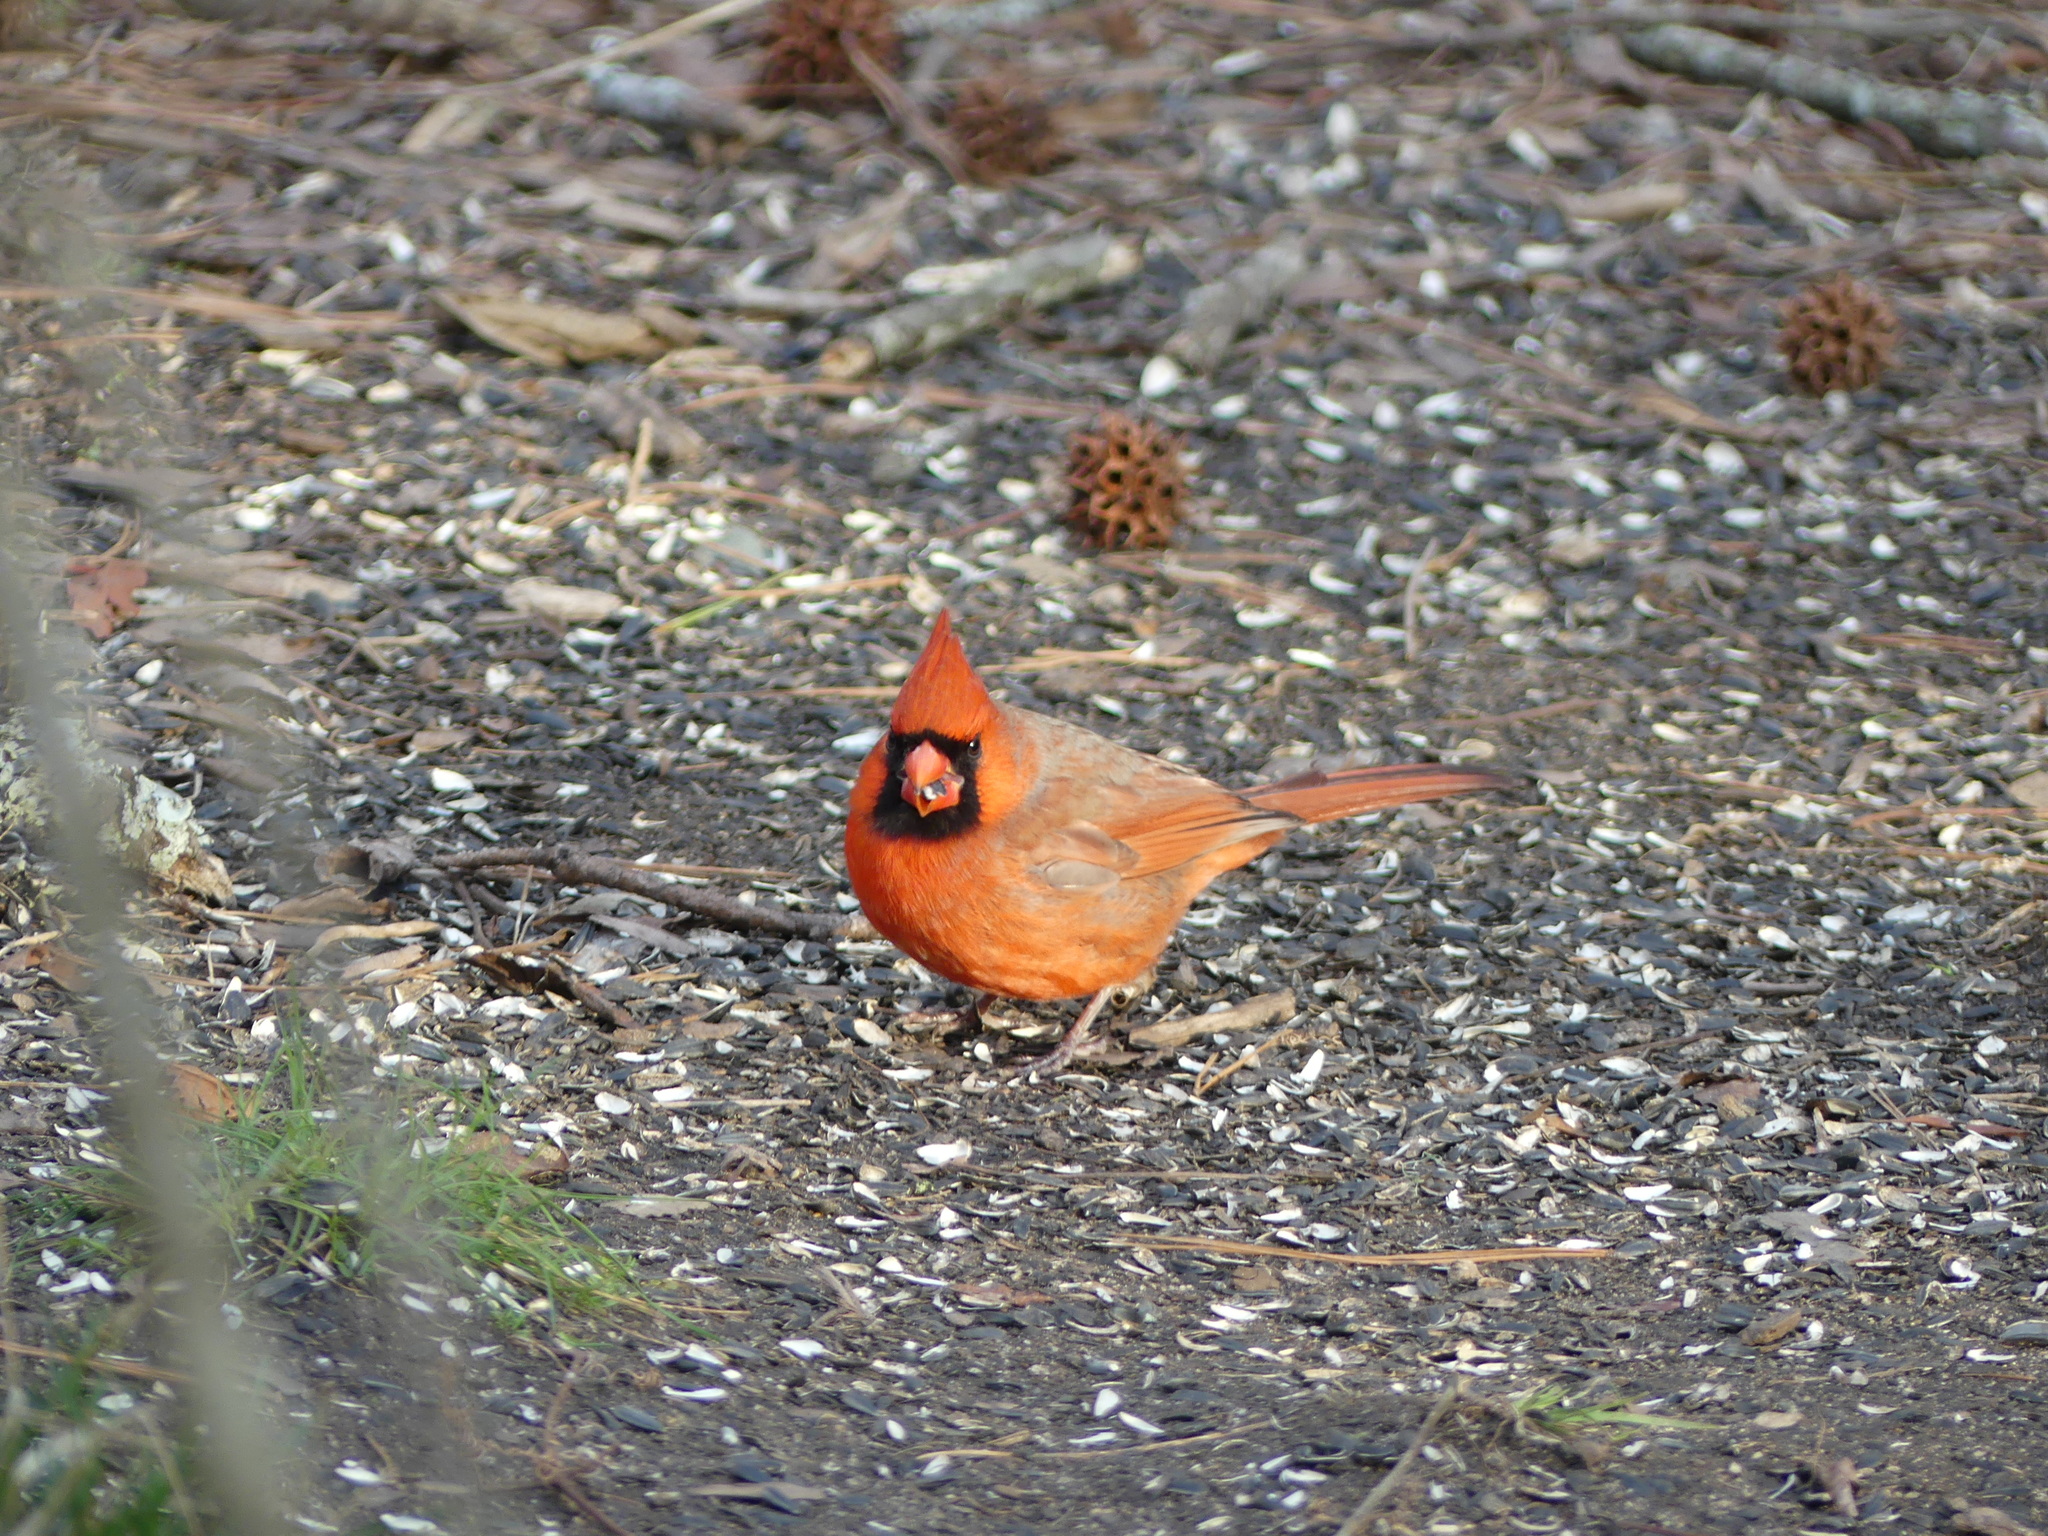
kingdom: Animalia
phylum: Chordata
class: Aves
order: Passeriformes
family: Cardinalidae
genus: Cardinalis
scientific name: Cardinalis cardinalis
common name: Northern cardinal
